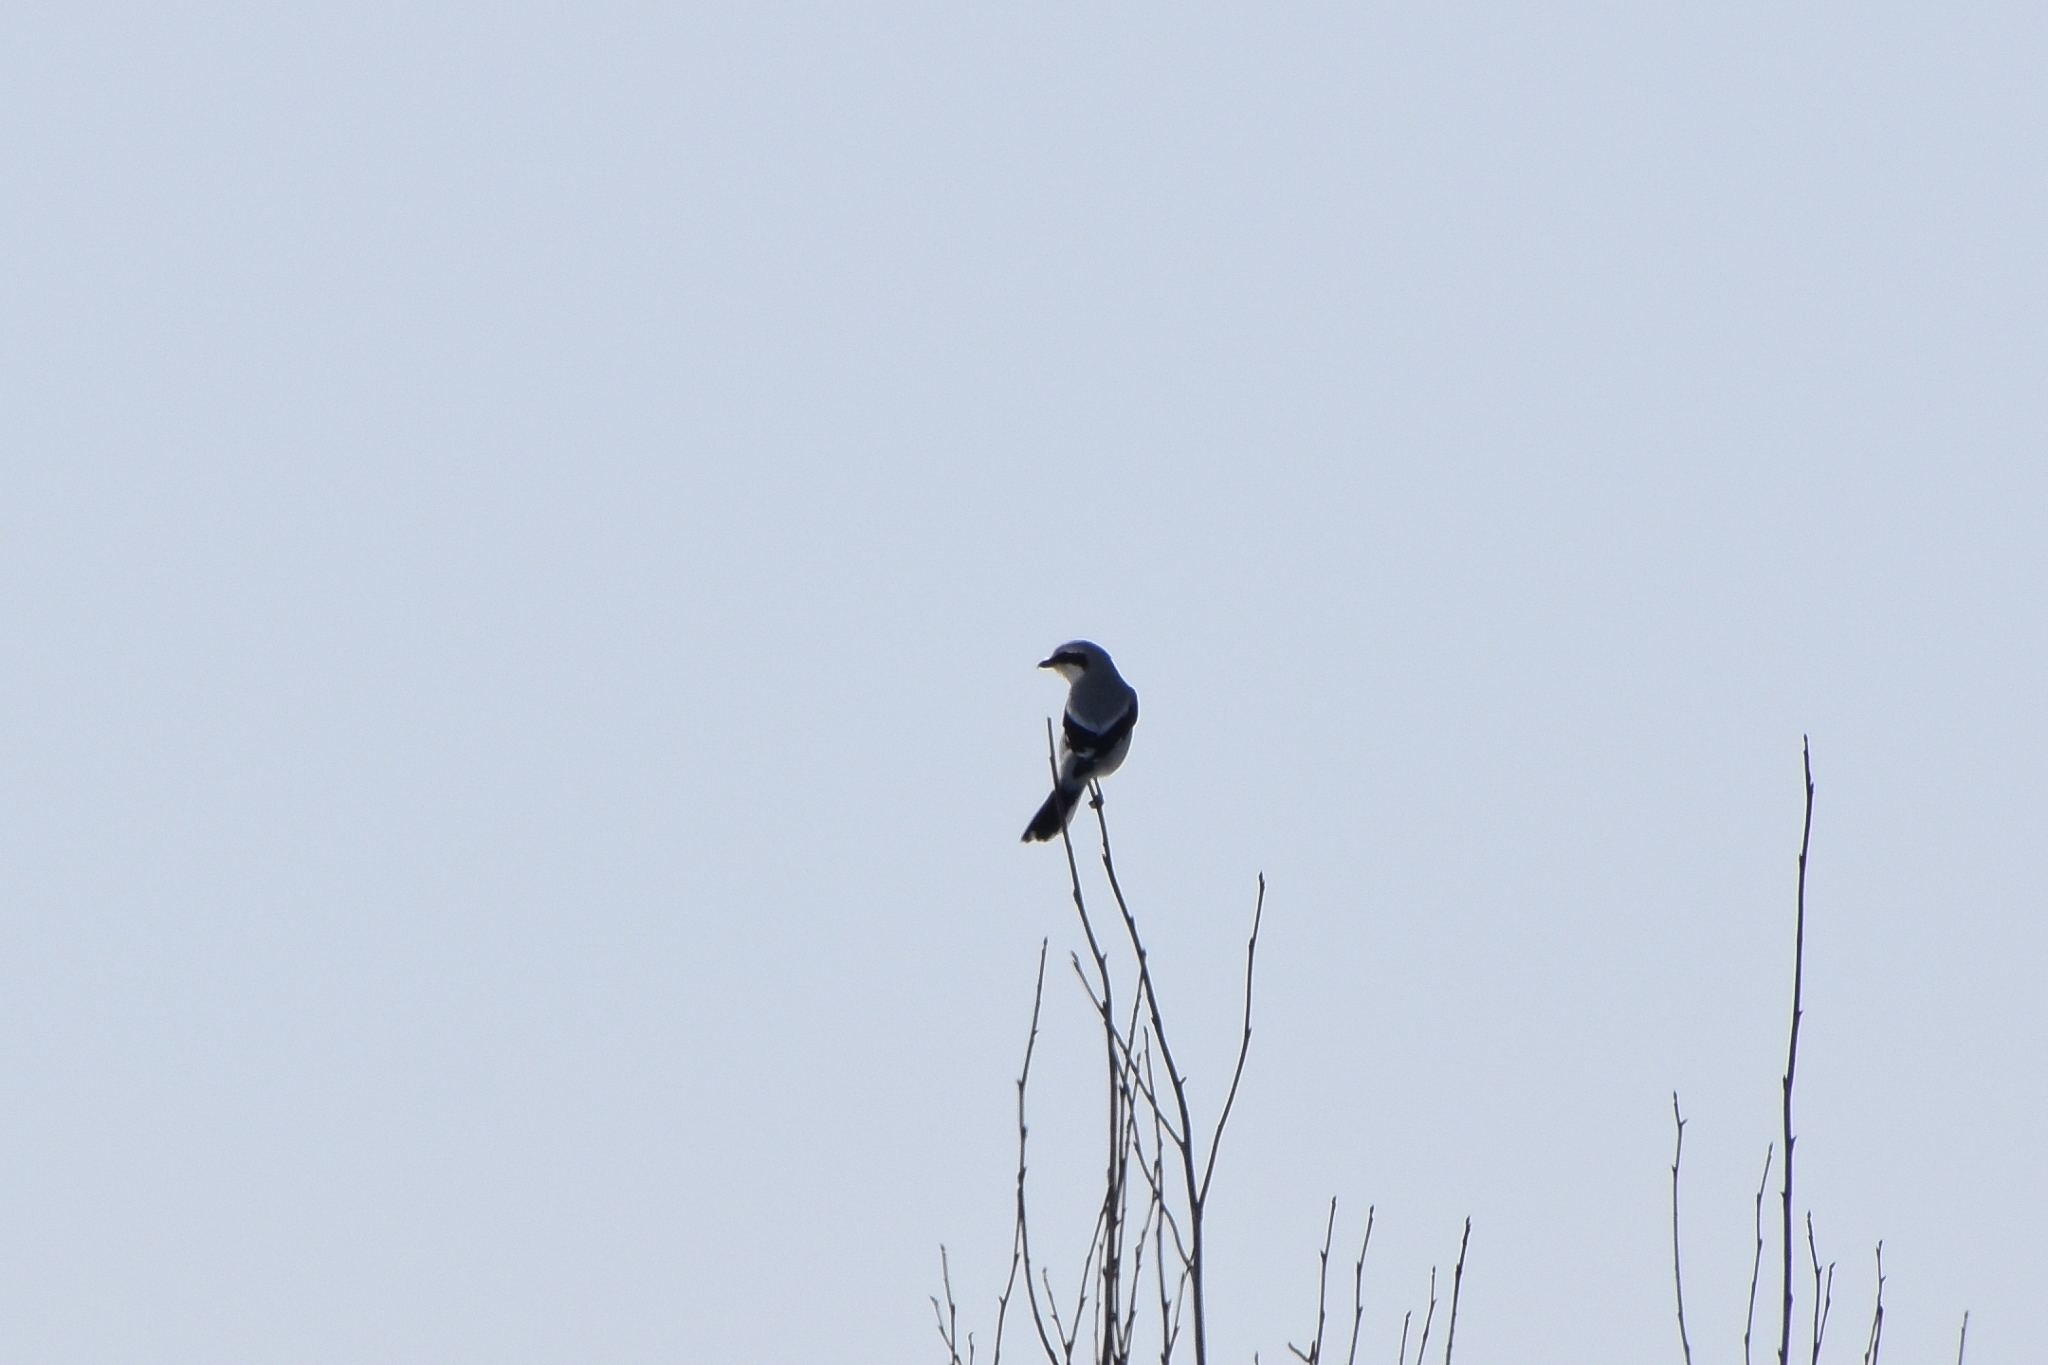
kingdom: Animalia
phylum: Chordata
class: Aves
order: Passeriformes
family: Laniidae
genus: Lanius
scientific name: Lanius excubitor
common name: Great grey shrike
